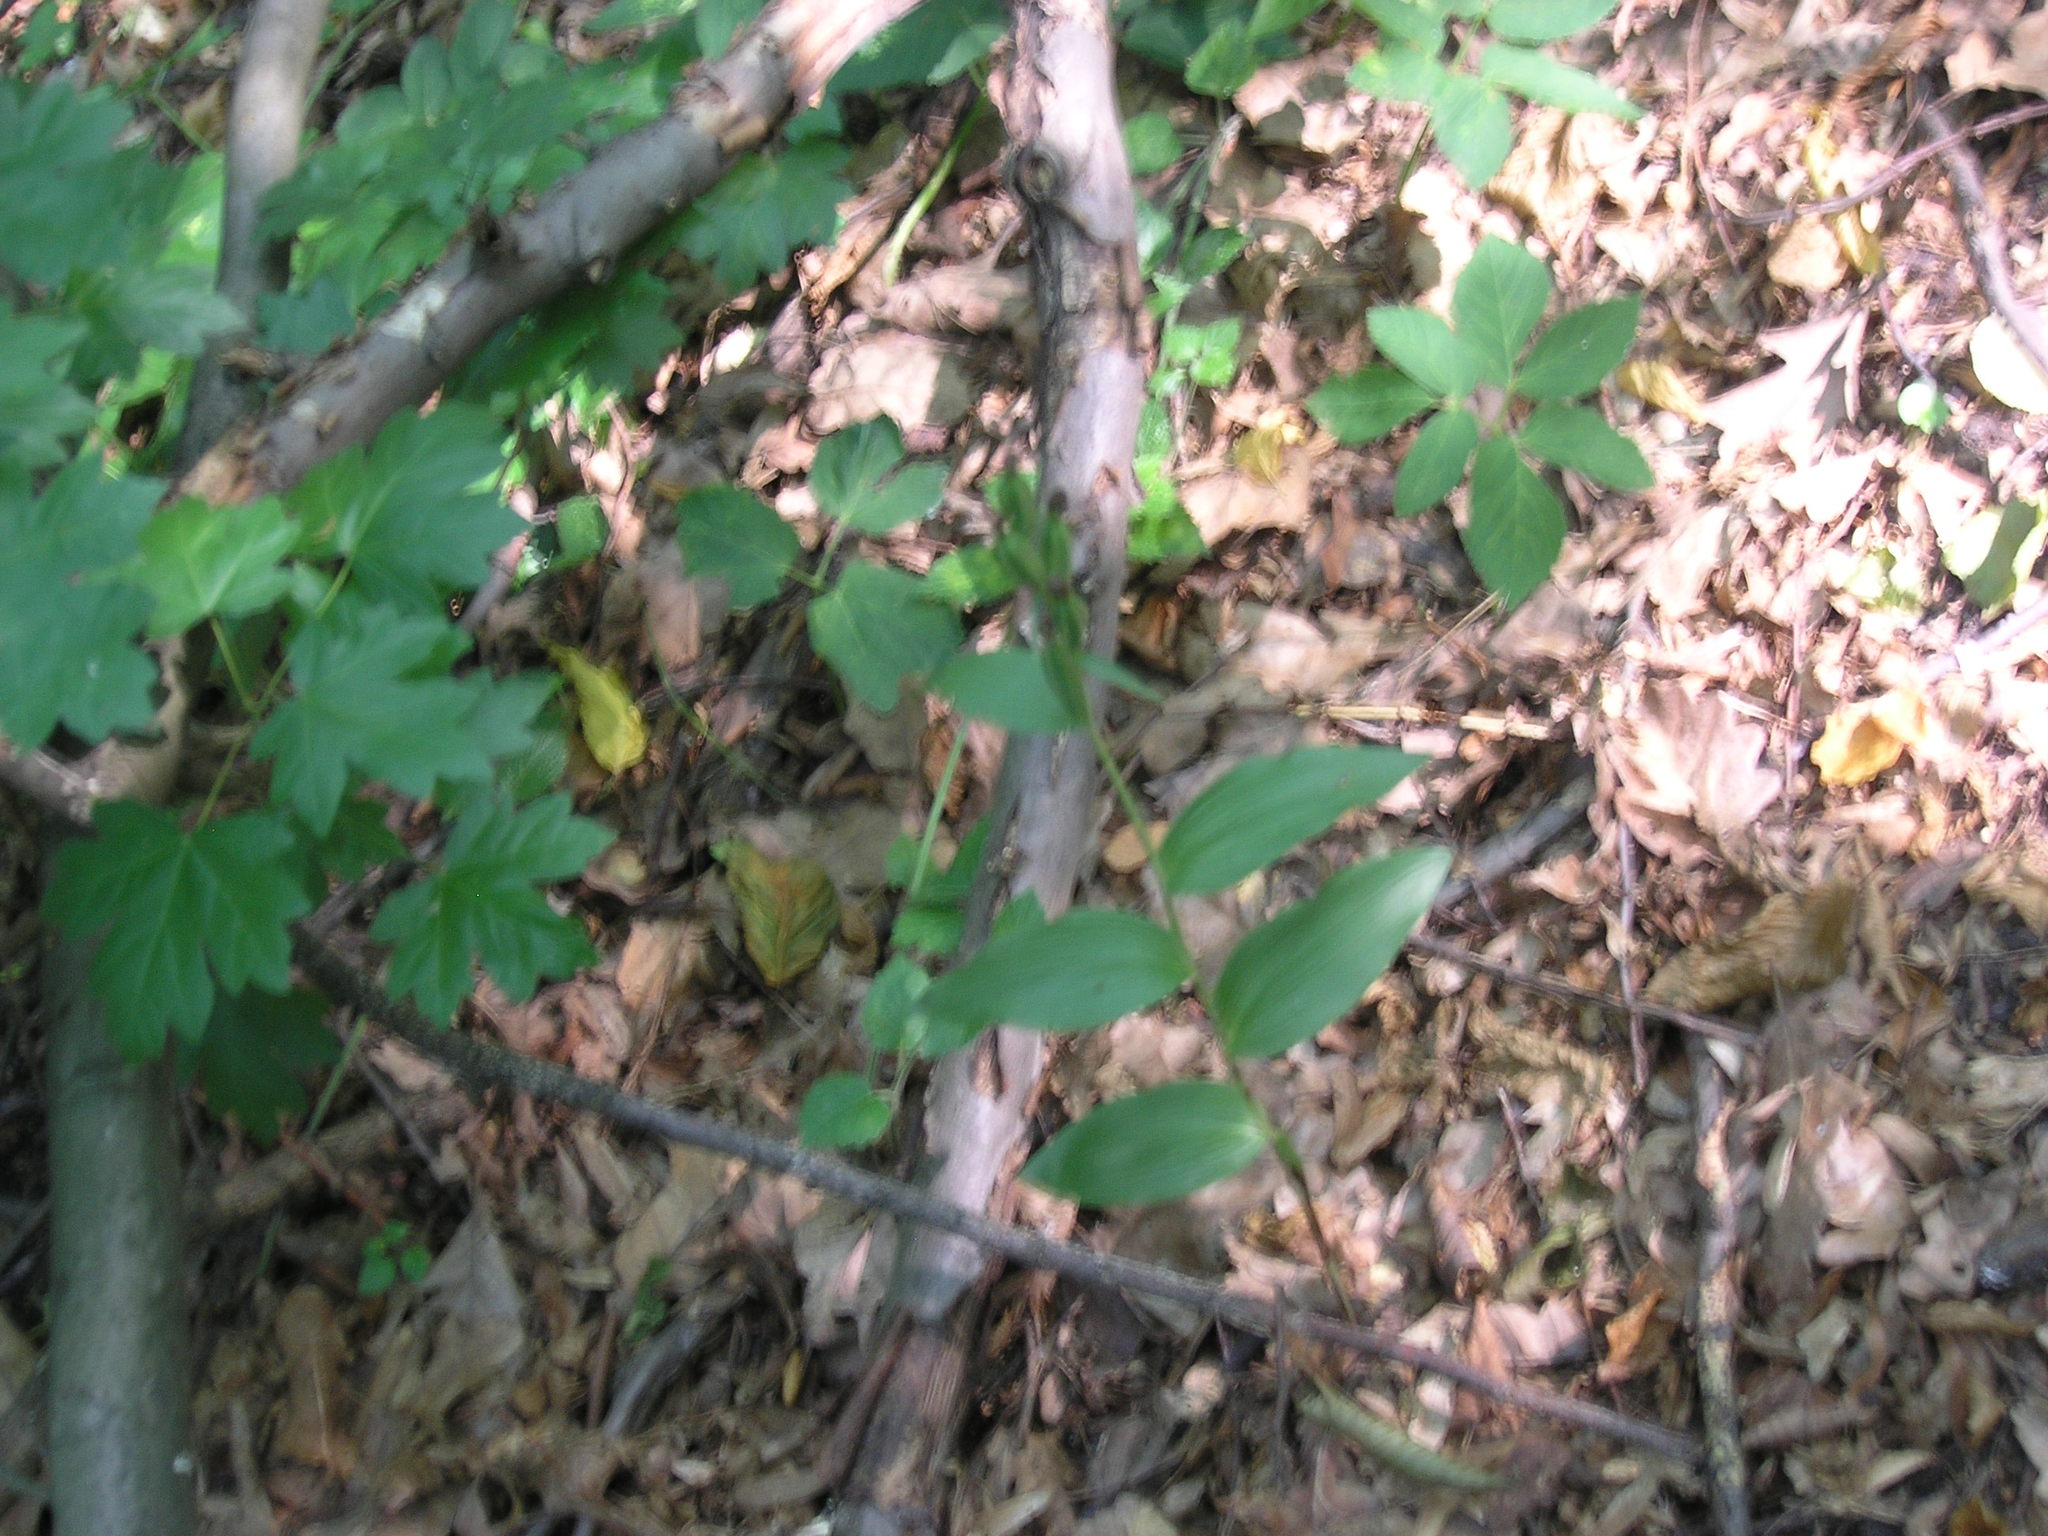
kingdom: Plantae
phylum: Tracheophyta
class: Liliopsida
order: Asparagales
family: Orchidaceae
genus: Cephalanthera
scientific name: Cephalanthera damasonium
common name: White helleborine
